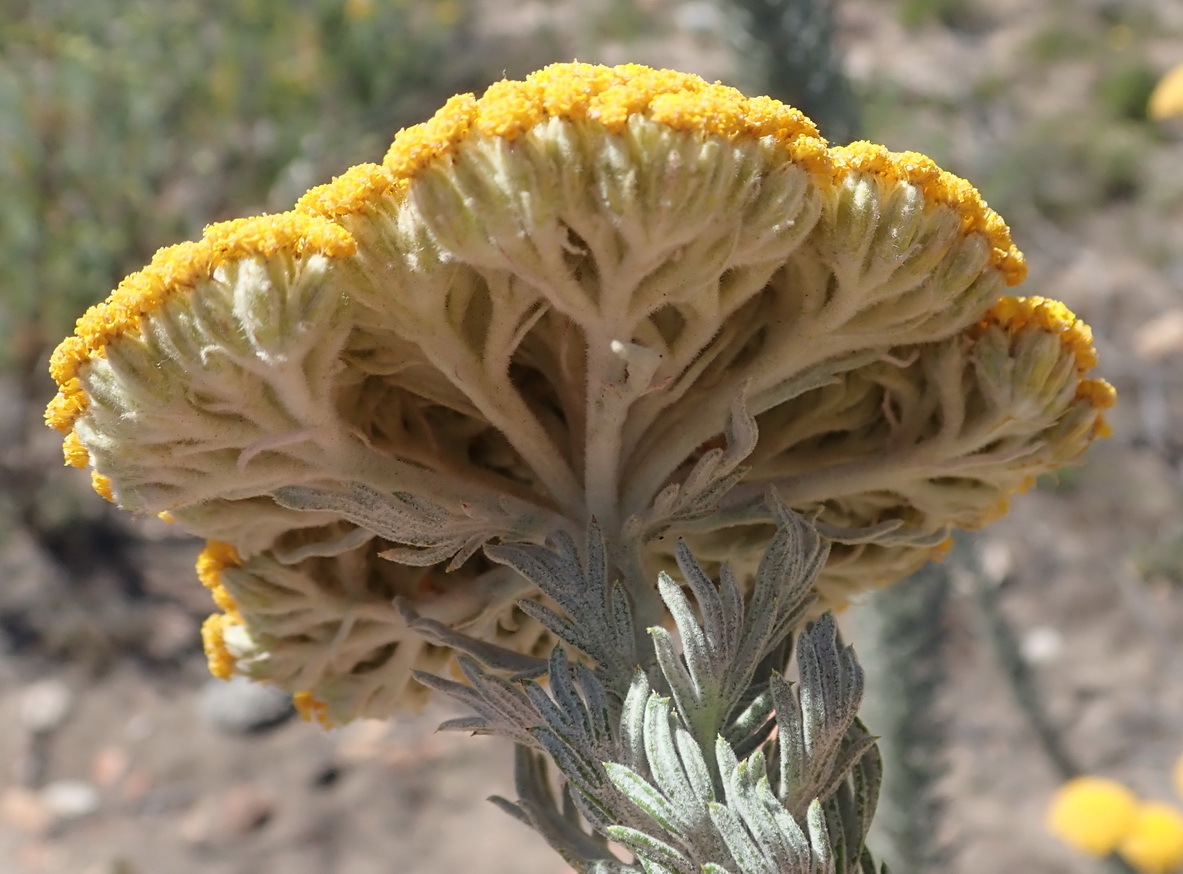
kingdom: Plantae
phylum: Tracheophyta
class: Magnoliopsida
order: Asterales
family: Asteraceae
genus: Athanasia
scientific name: Athanasia pinnata
